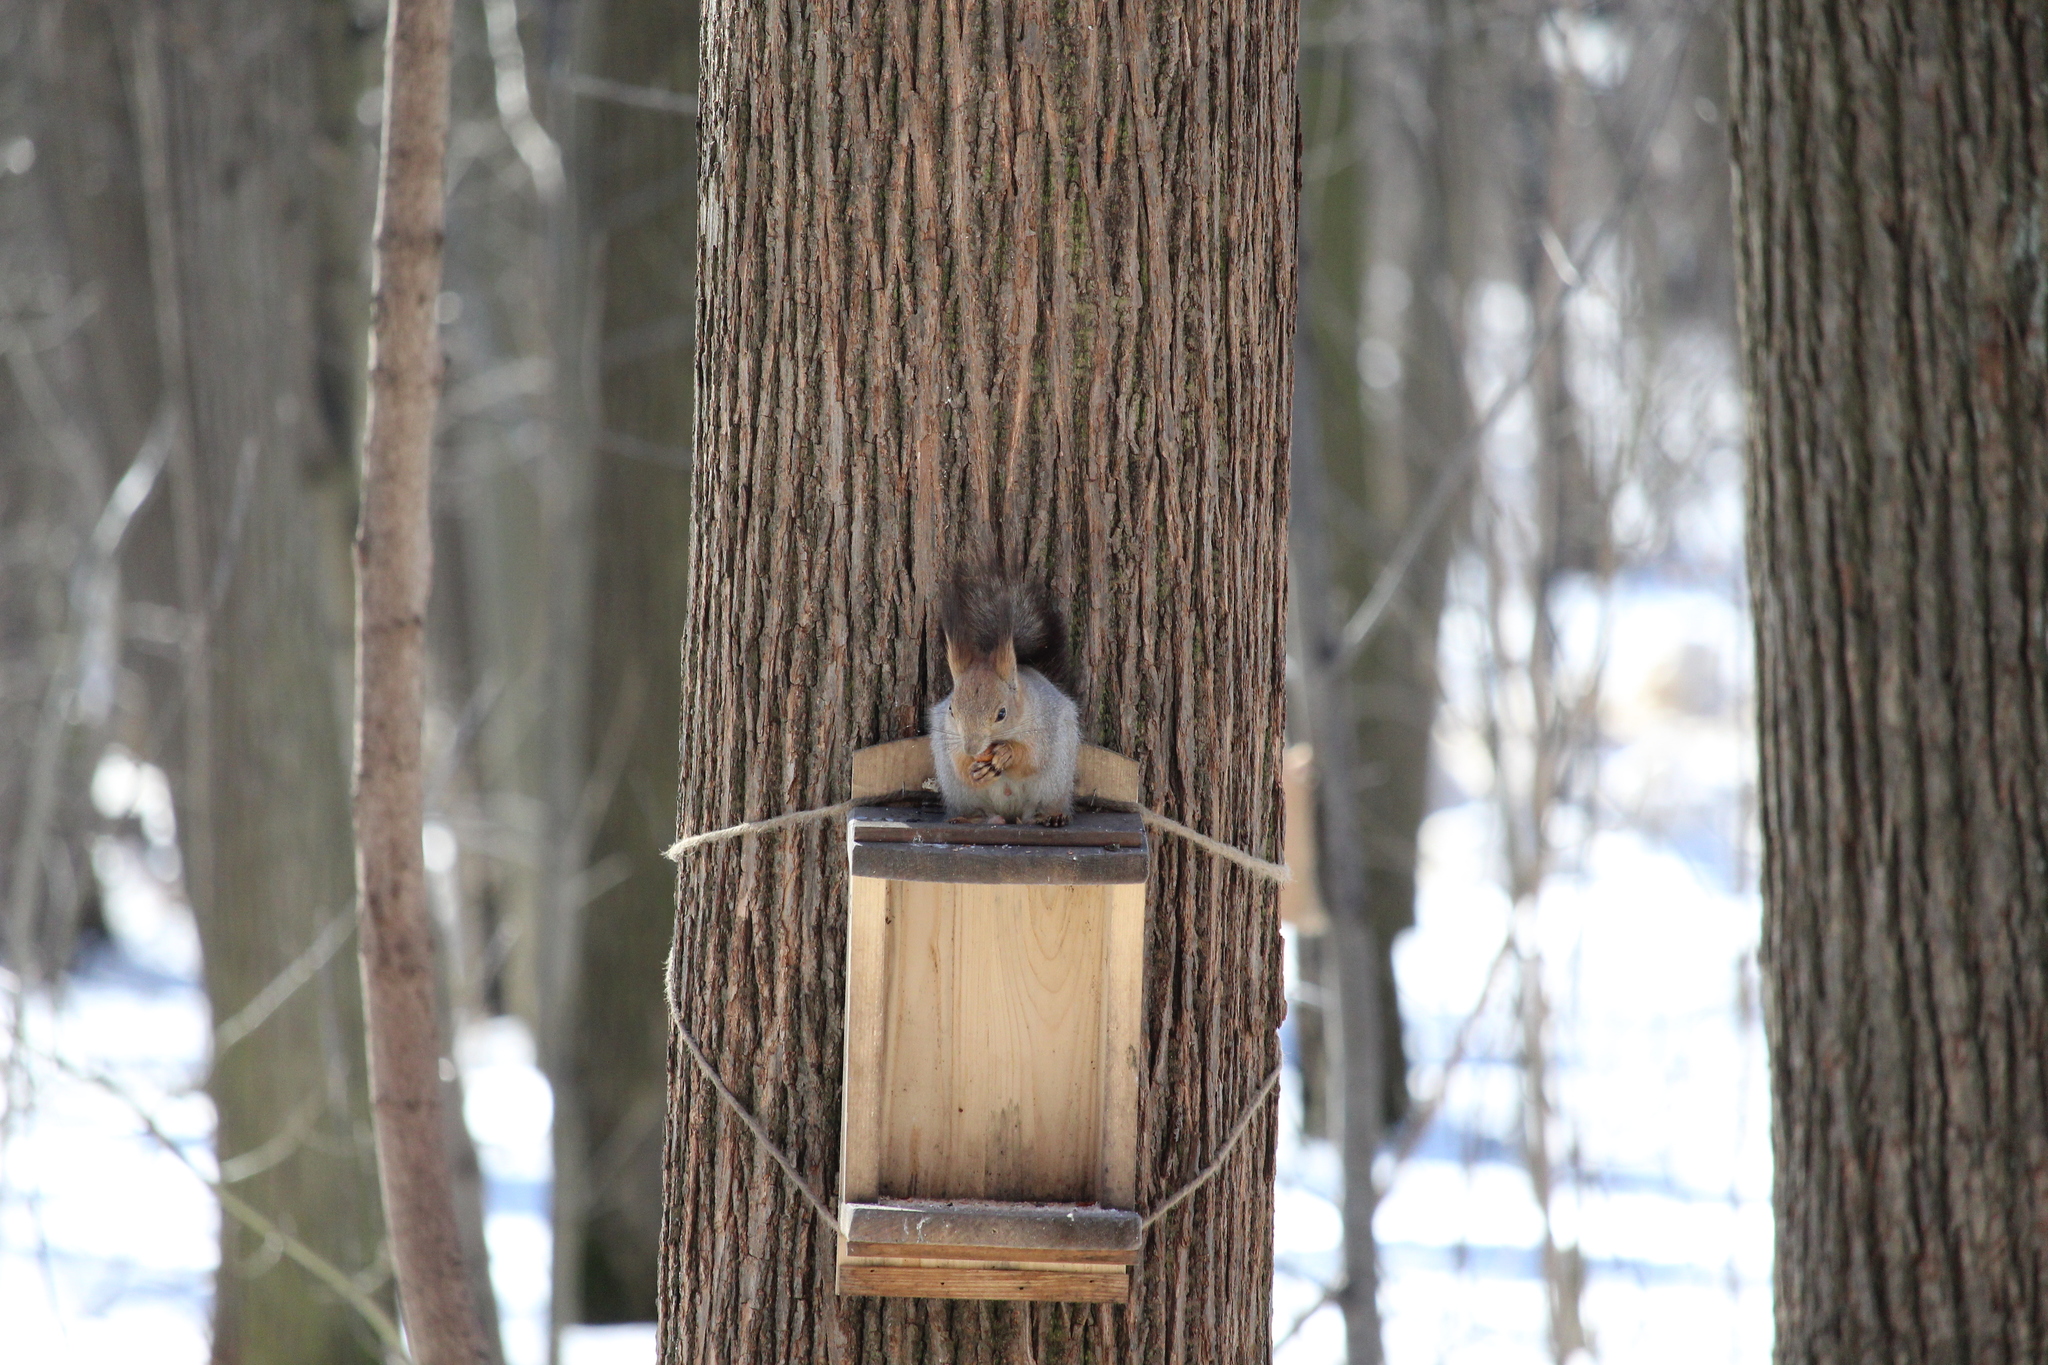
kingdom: Animalia
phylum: Chordata
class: Mammalia
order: Rodentia
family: Sciuridae
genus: Sciurus
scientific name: Sciurus vulgaris
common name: Eurasian red squirrel
